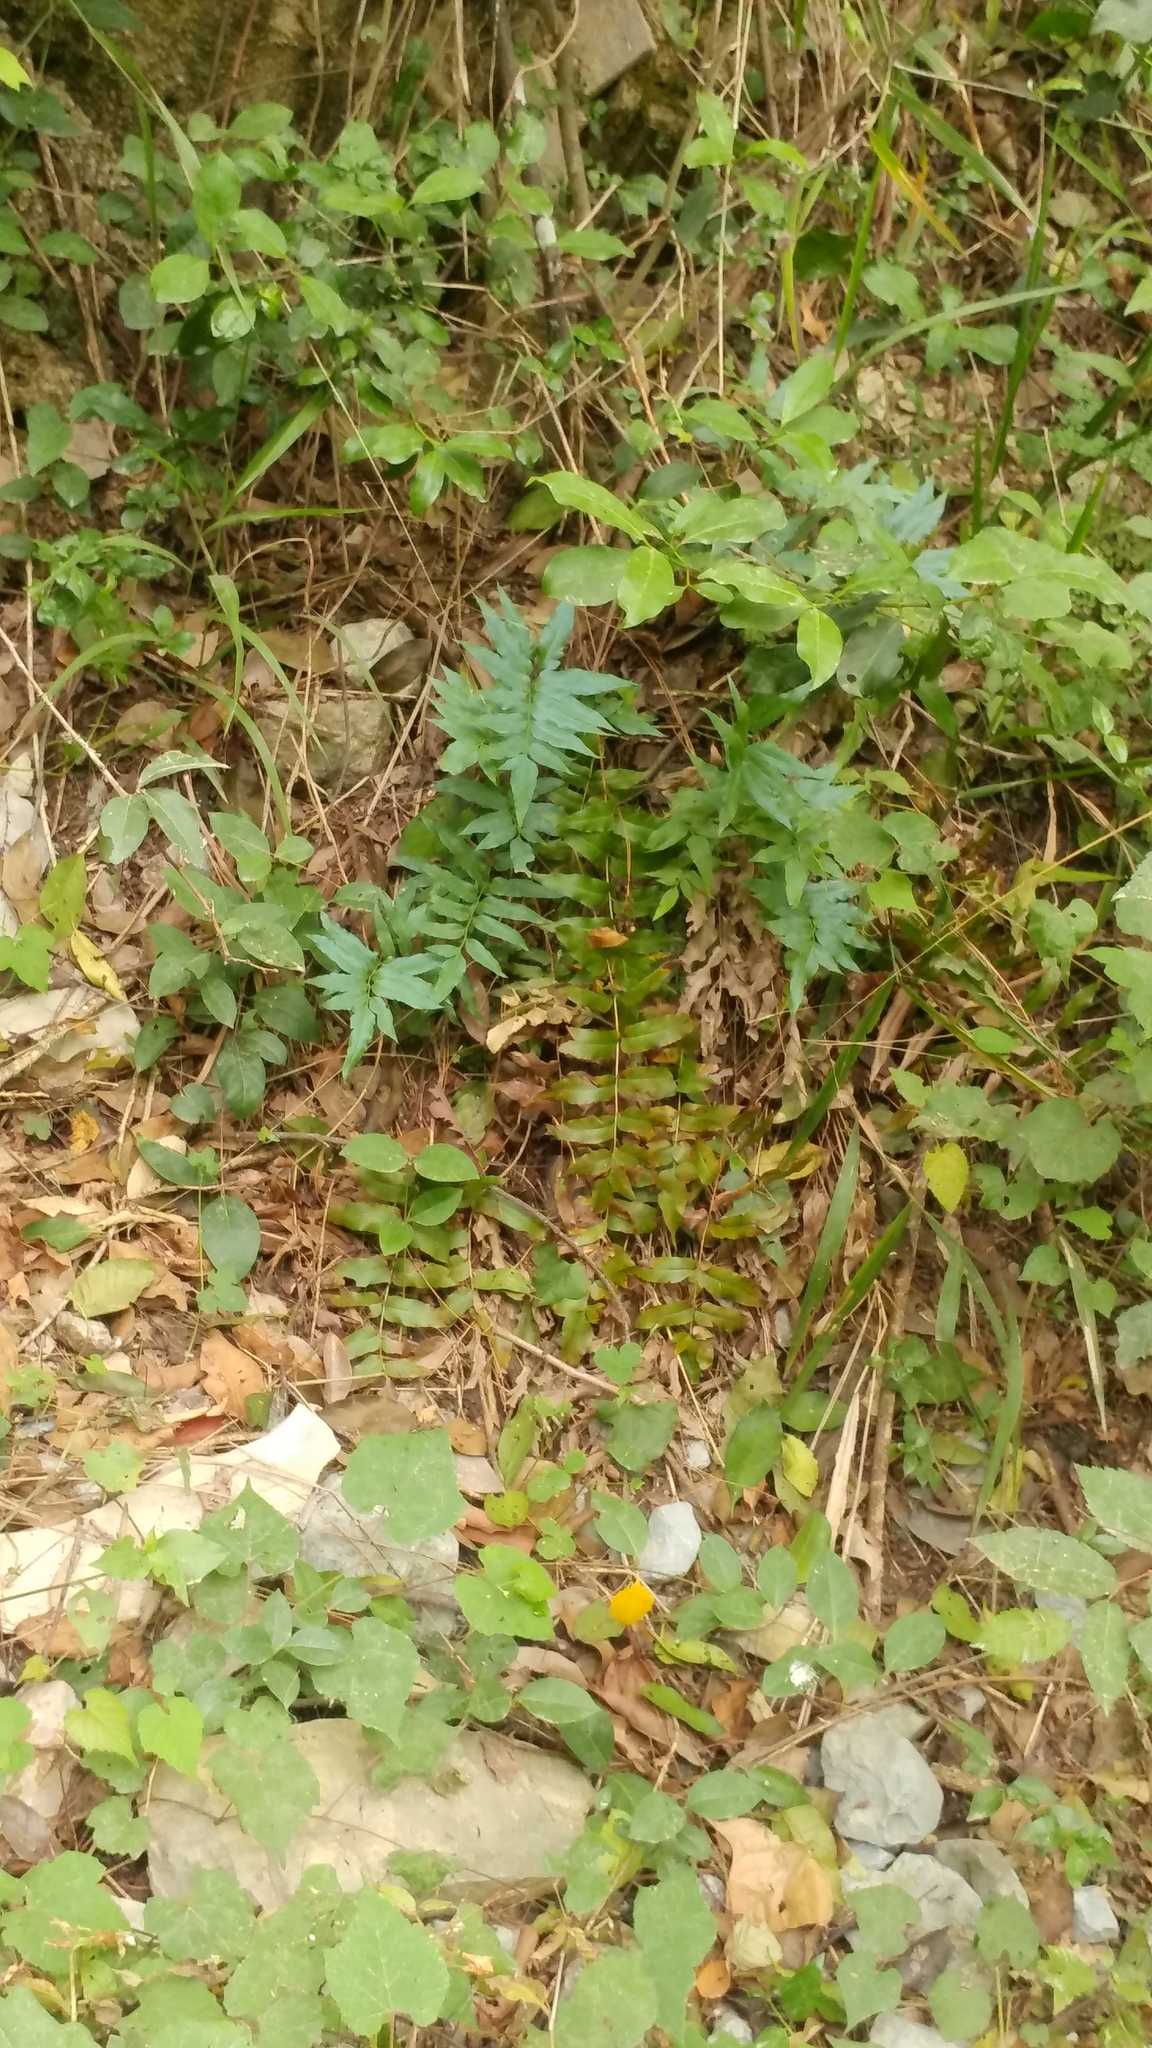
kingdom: Plantae
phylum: Tracheophyta
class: Polypodiopsida
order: Schizaeales
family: Anemiaceae
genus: Anemia
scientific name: Anemia mexicana
